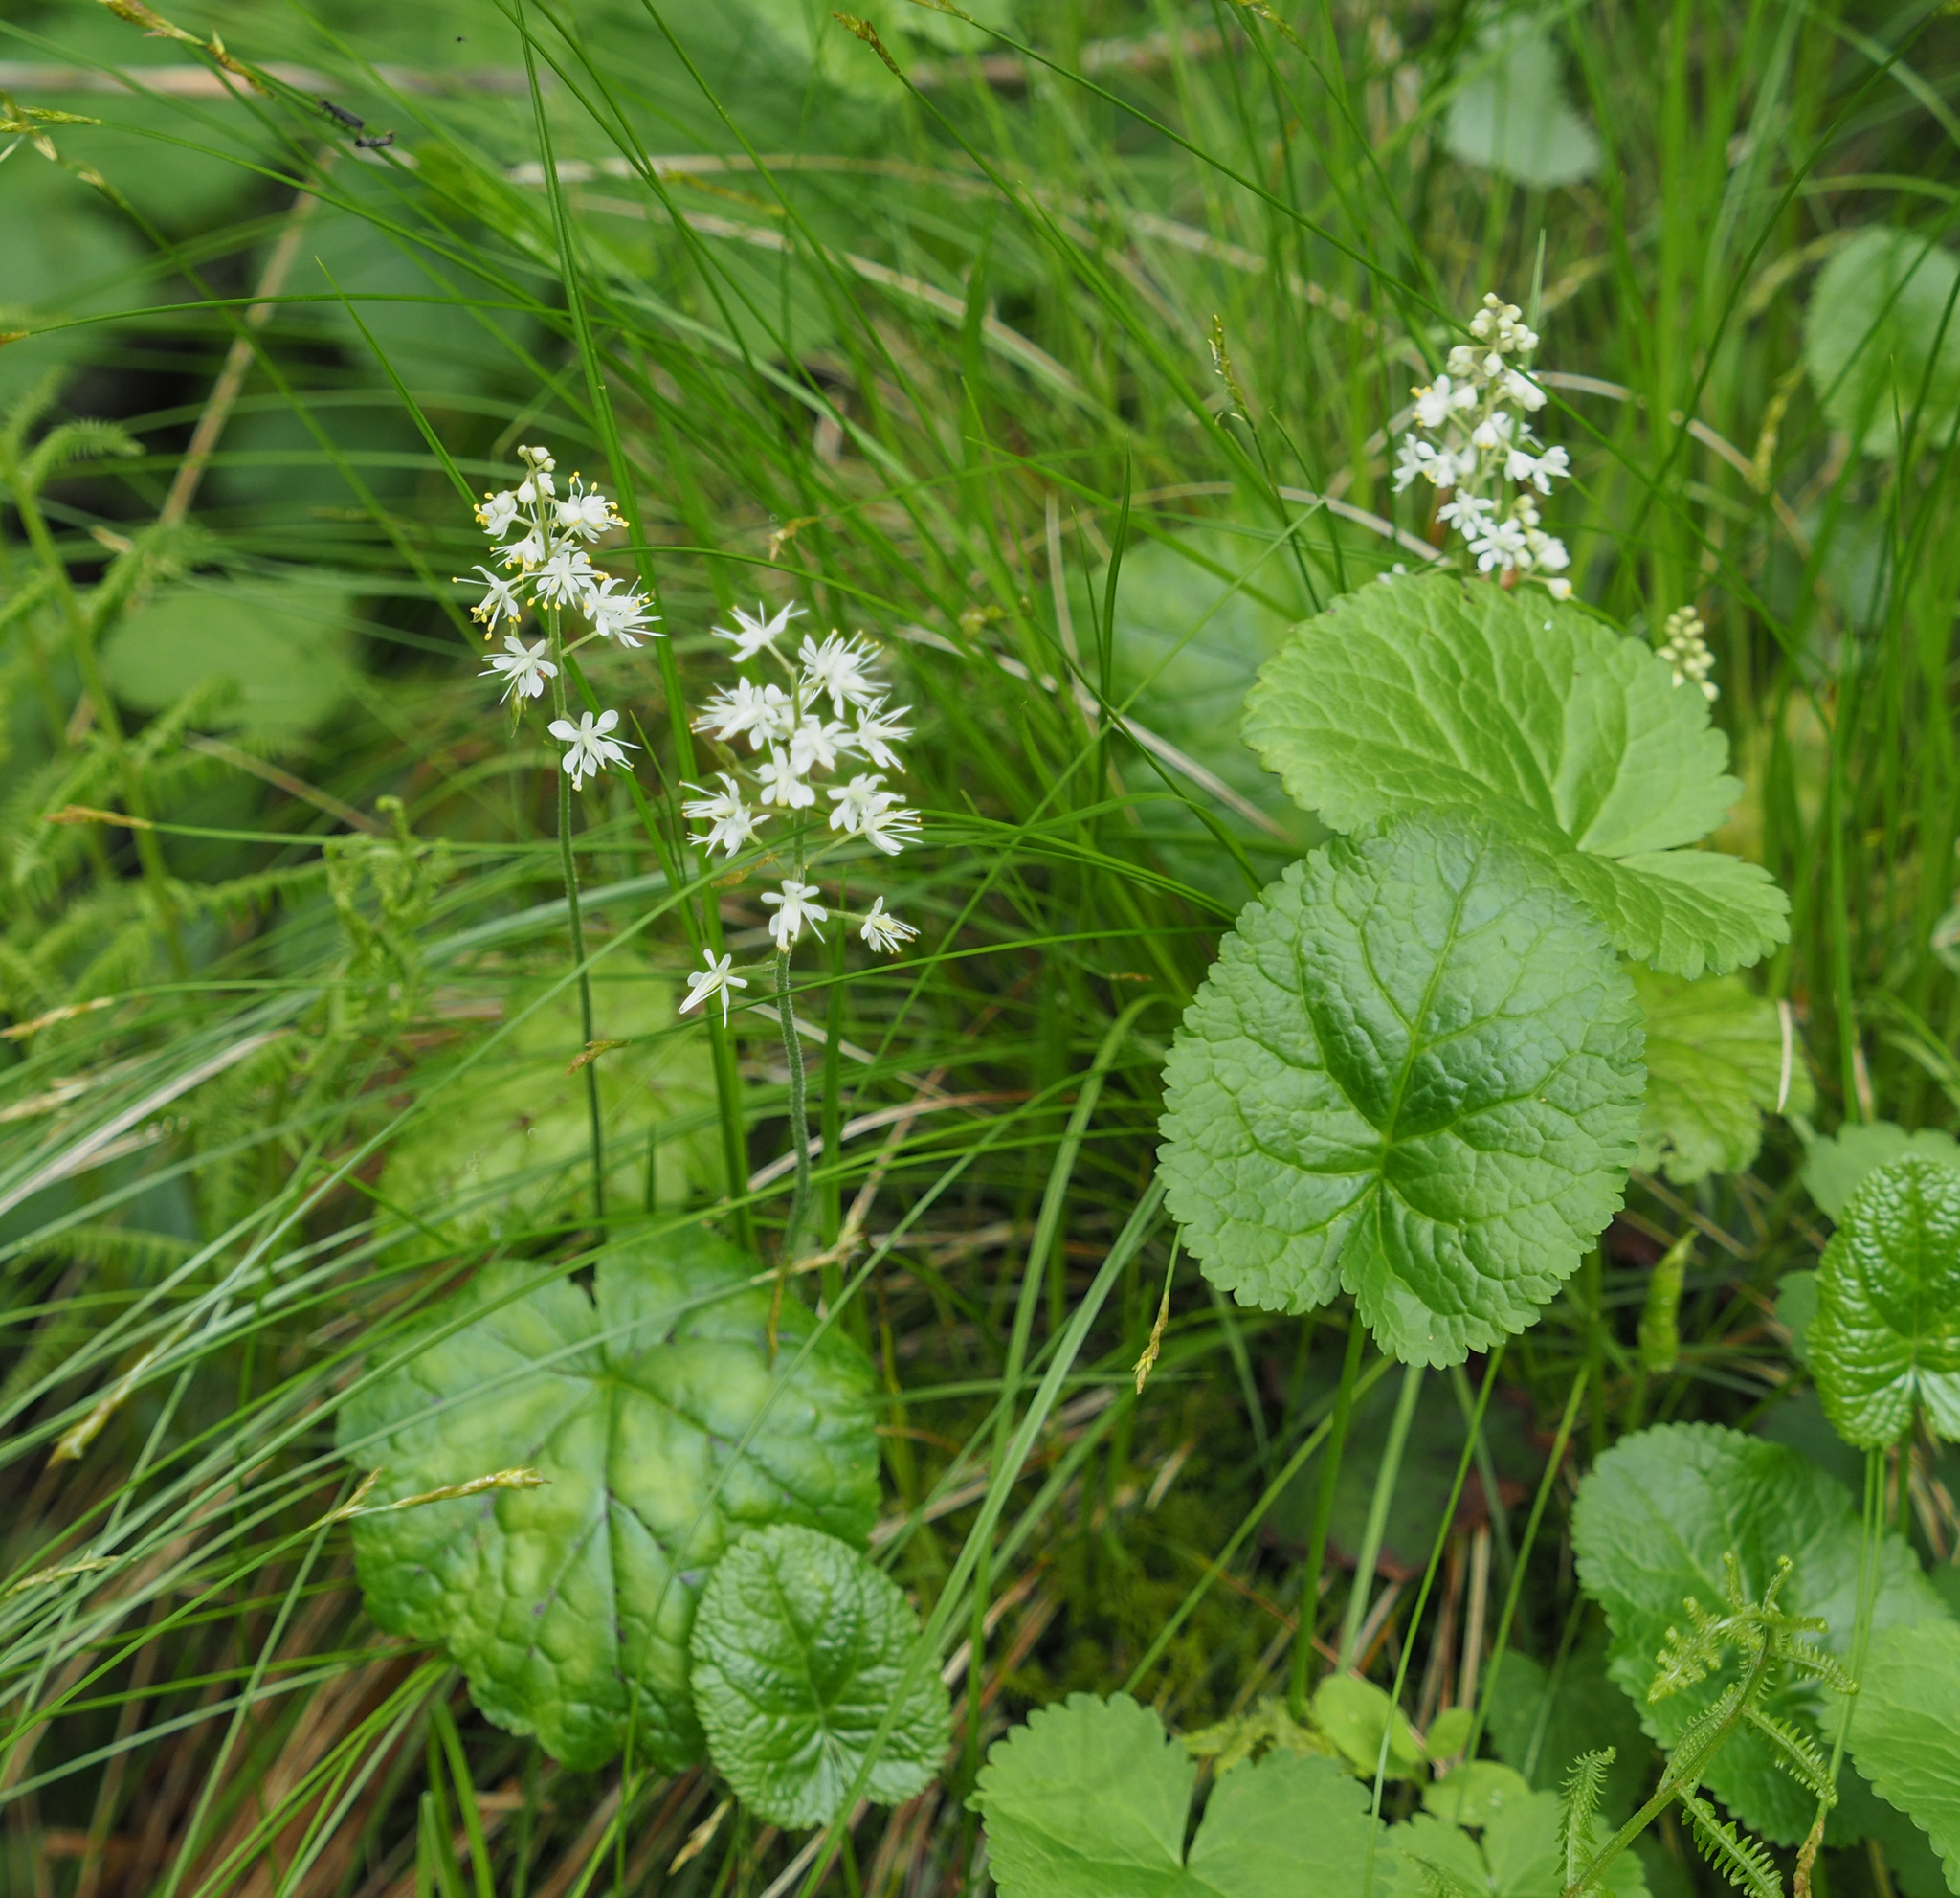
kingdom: Plantae
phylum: Tracheophyta
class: Magnoliopsida
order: Saxifragales
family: Saxifragaceae
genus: Tiarella
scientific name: Tiarella stolonifera
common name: Stoloniferous foamflower
